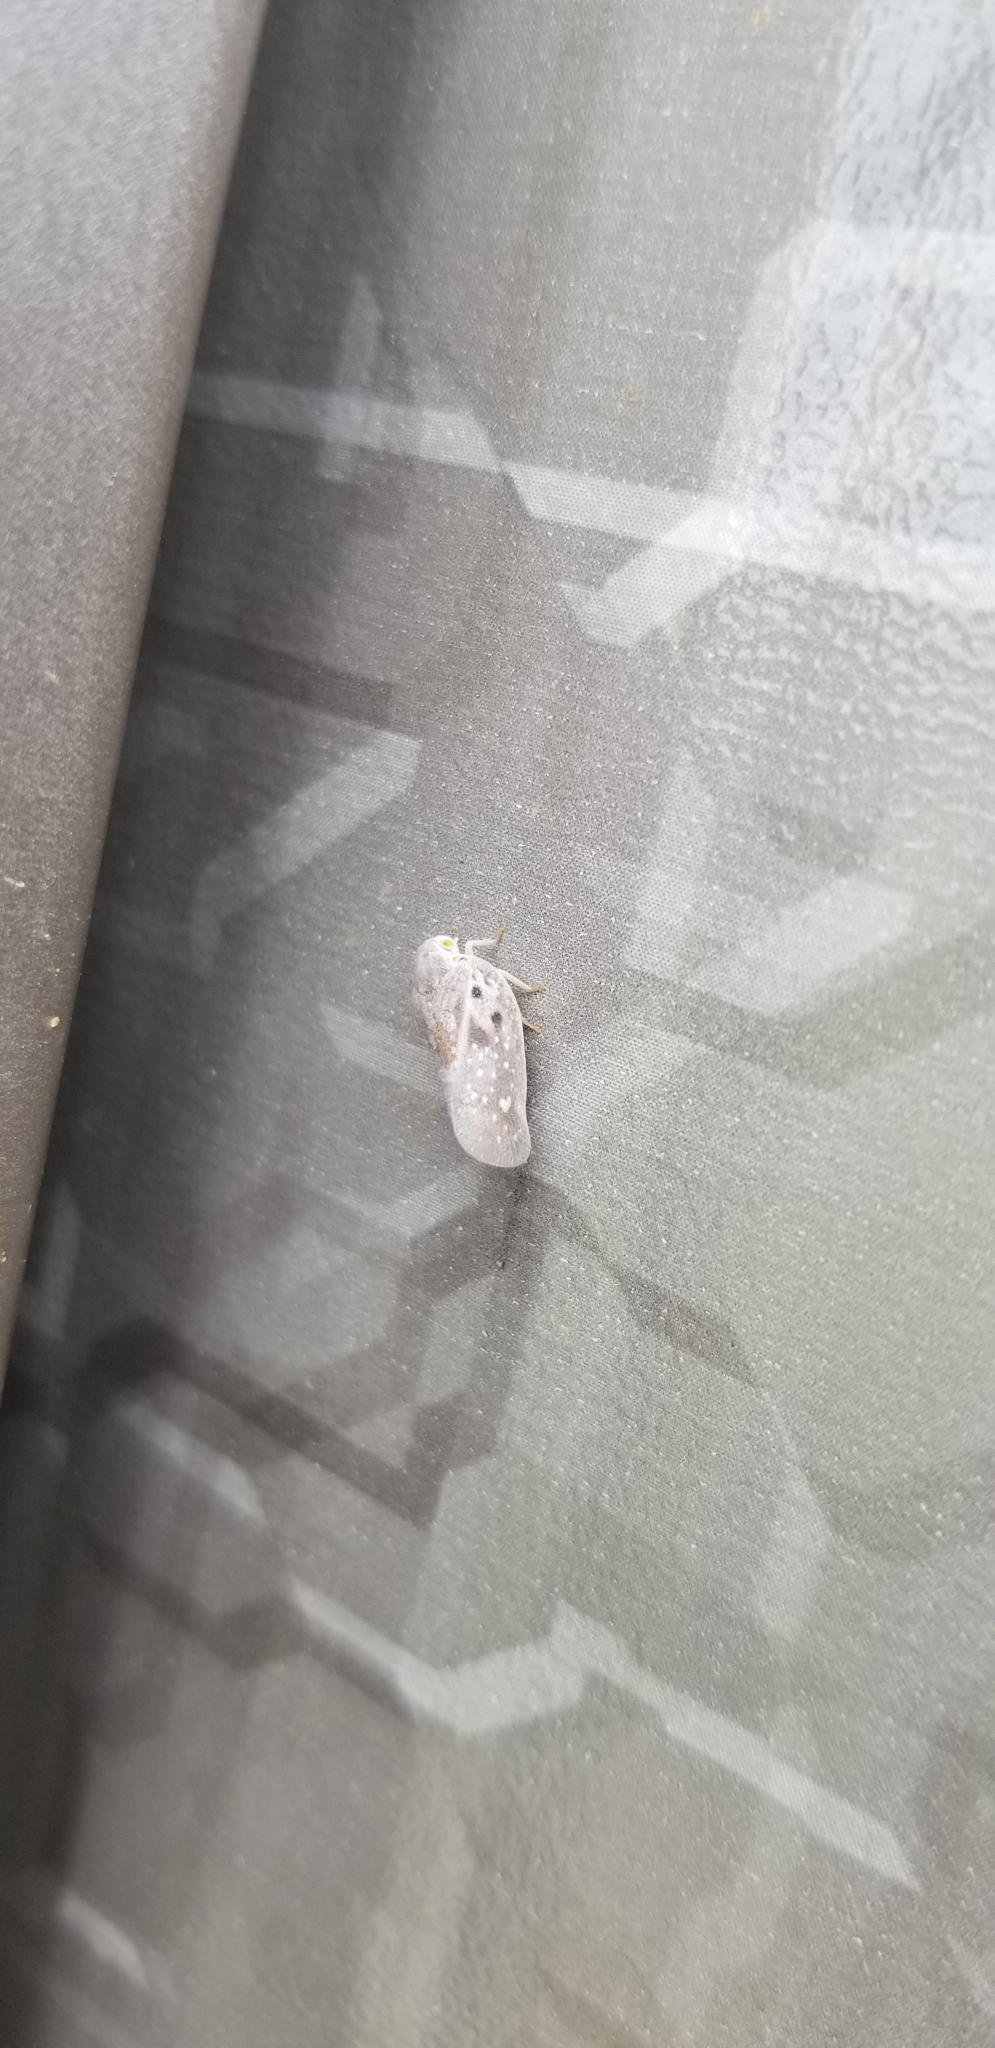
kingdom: Animalia
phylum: Arthropoda
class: Insecta
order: Hemiptera
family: Flatidae
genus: Metcalfa
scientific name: Metcalfa pruinosa
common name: Citrus flatid planthopper
